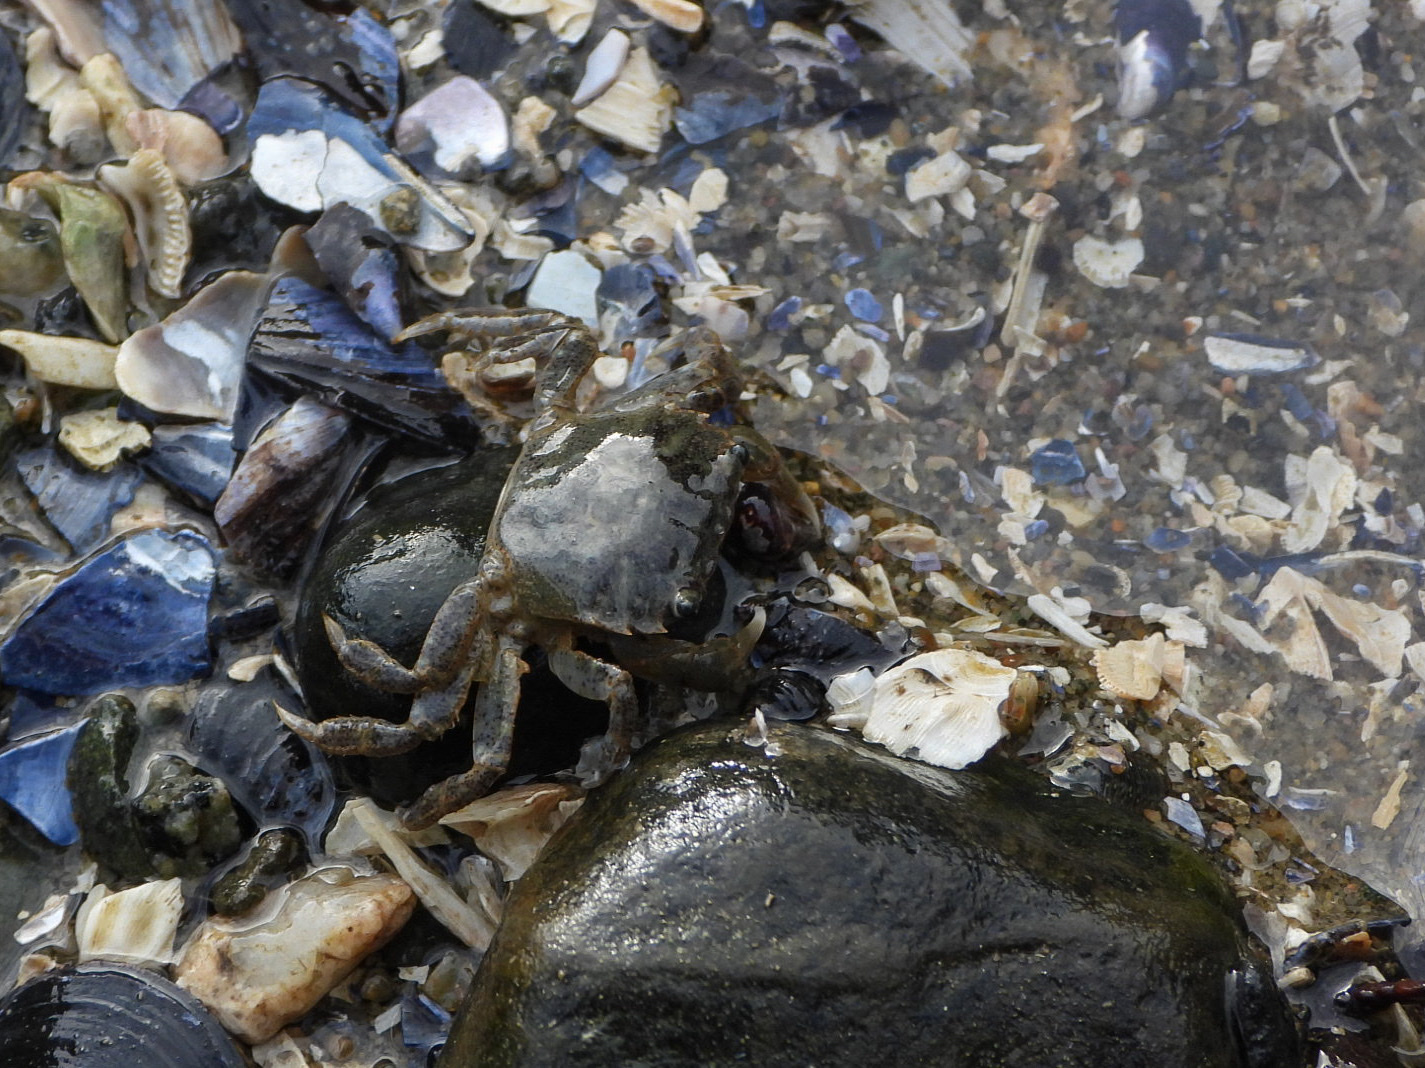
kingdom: Animalia
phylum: Arthropoda
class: Malacostraca
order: Decapoda
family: Varunidae
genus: Hemigrapsus
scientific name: Hemigrapsus oregonensis
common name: Yellow shore crab
